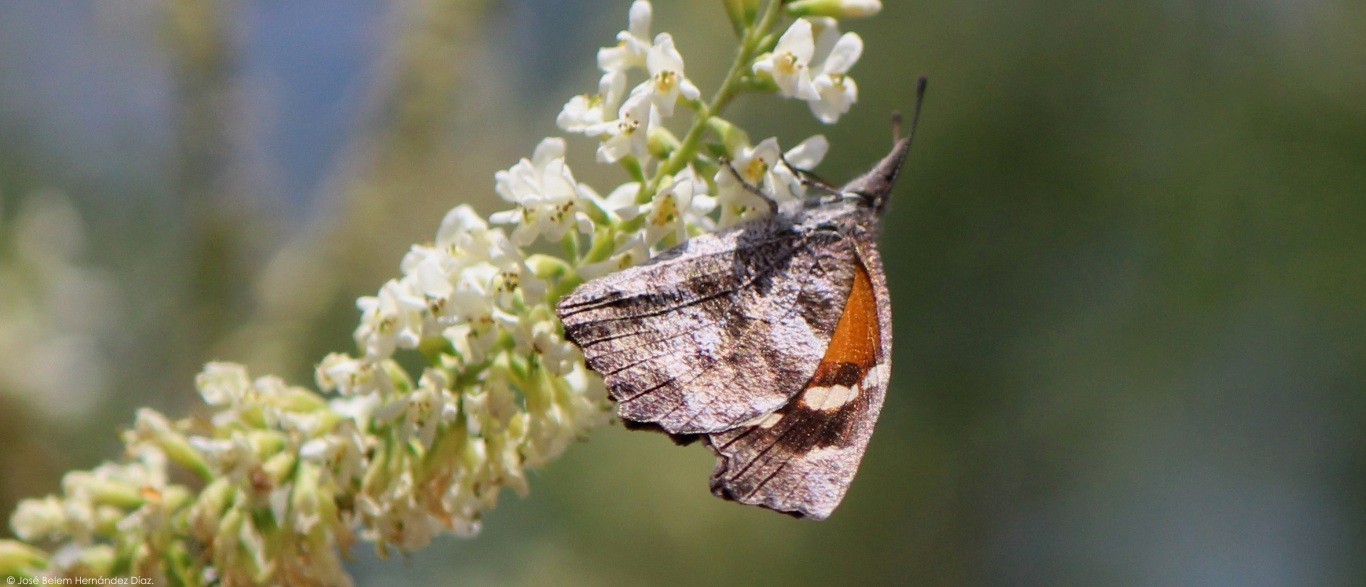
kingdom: Animalia
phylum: Arthropoda
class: Insecta
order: Lepidoptera
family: Nymphalidae
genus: Libytheana
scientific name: Libytheana carinenta
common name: American snout
